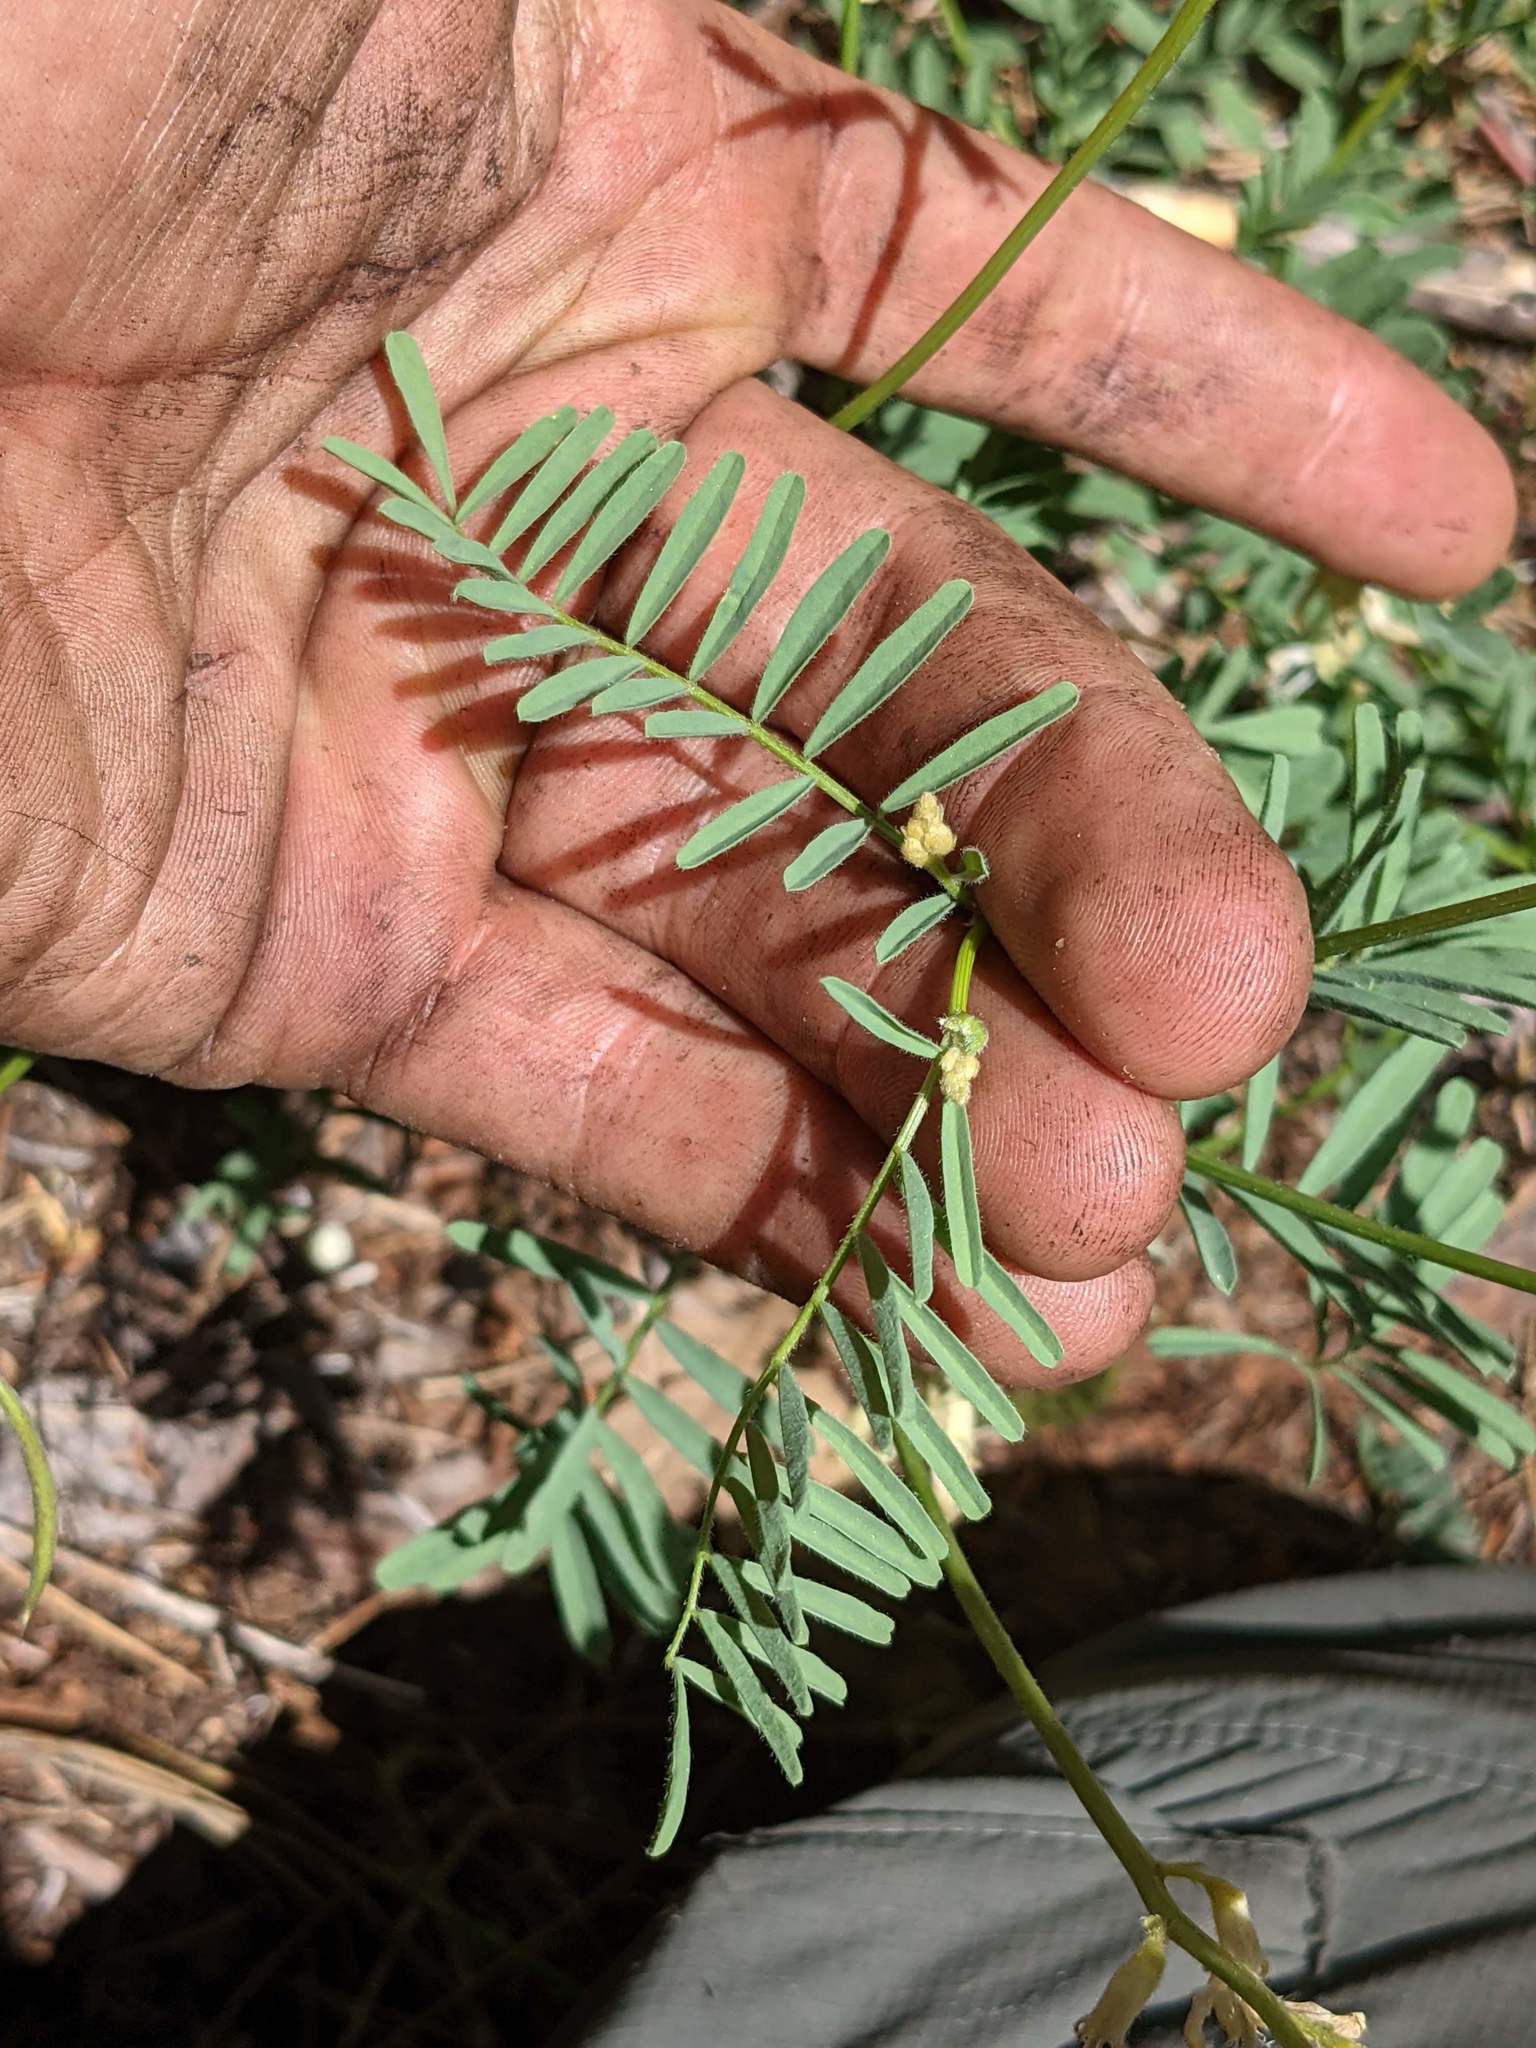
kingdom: Plantae
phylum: Tracheophyta
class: Magnoliopsida
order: Fabales
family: Fabaceae
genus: Astragalus
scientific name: Astragalus californicus
